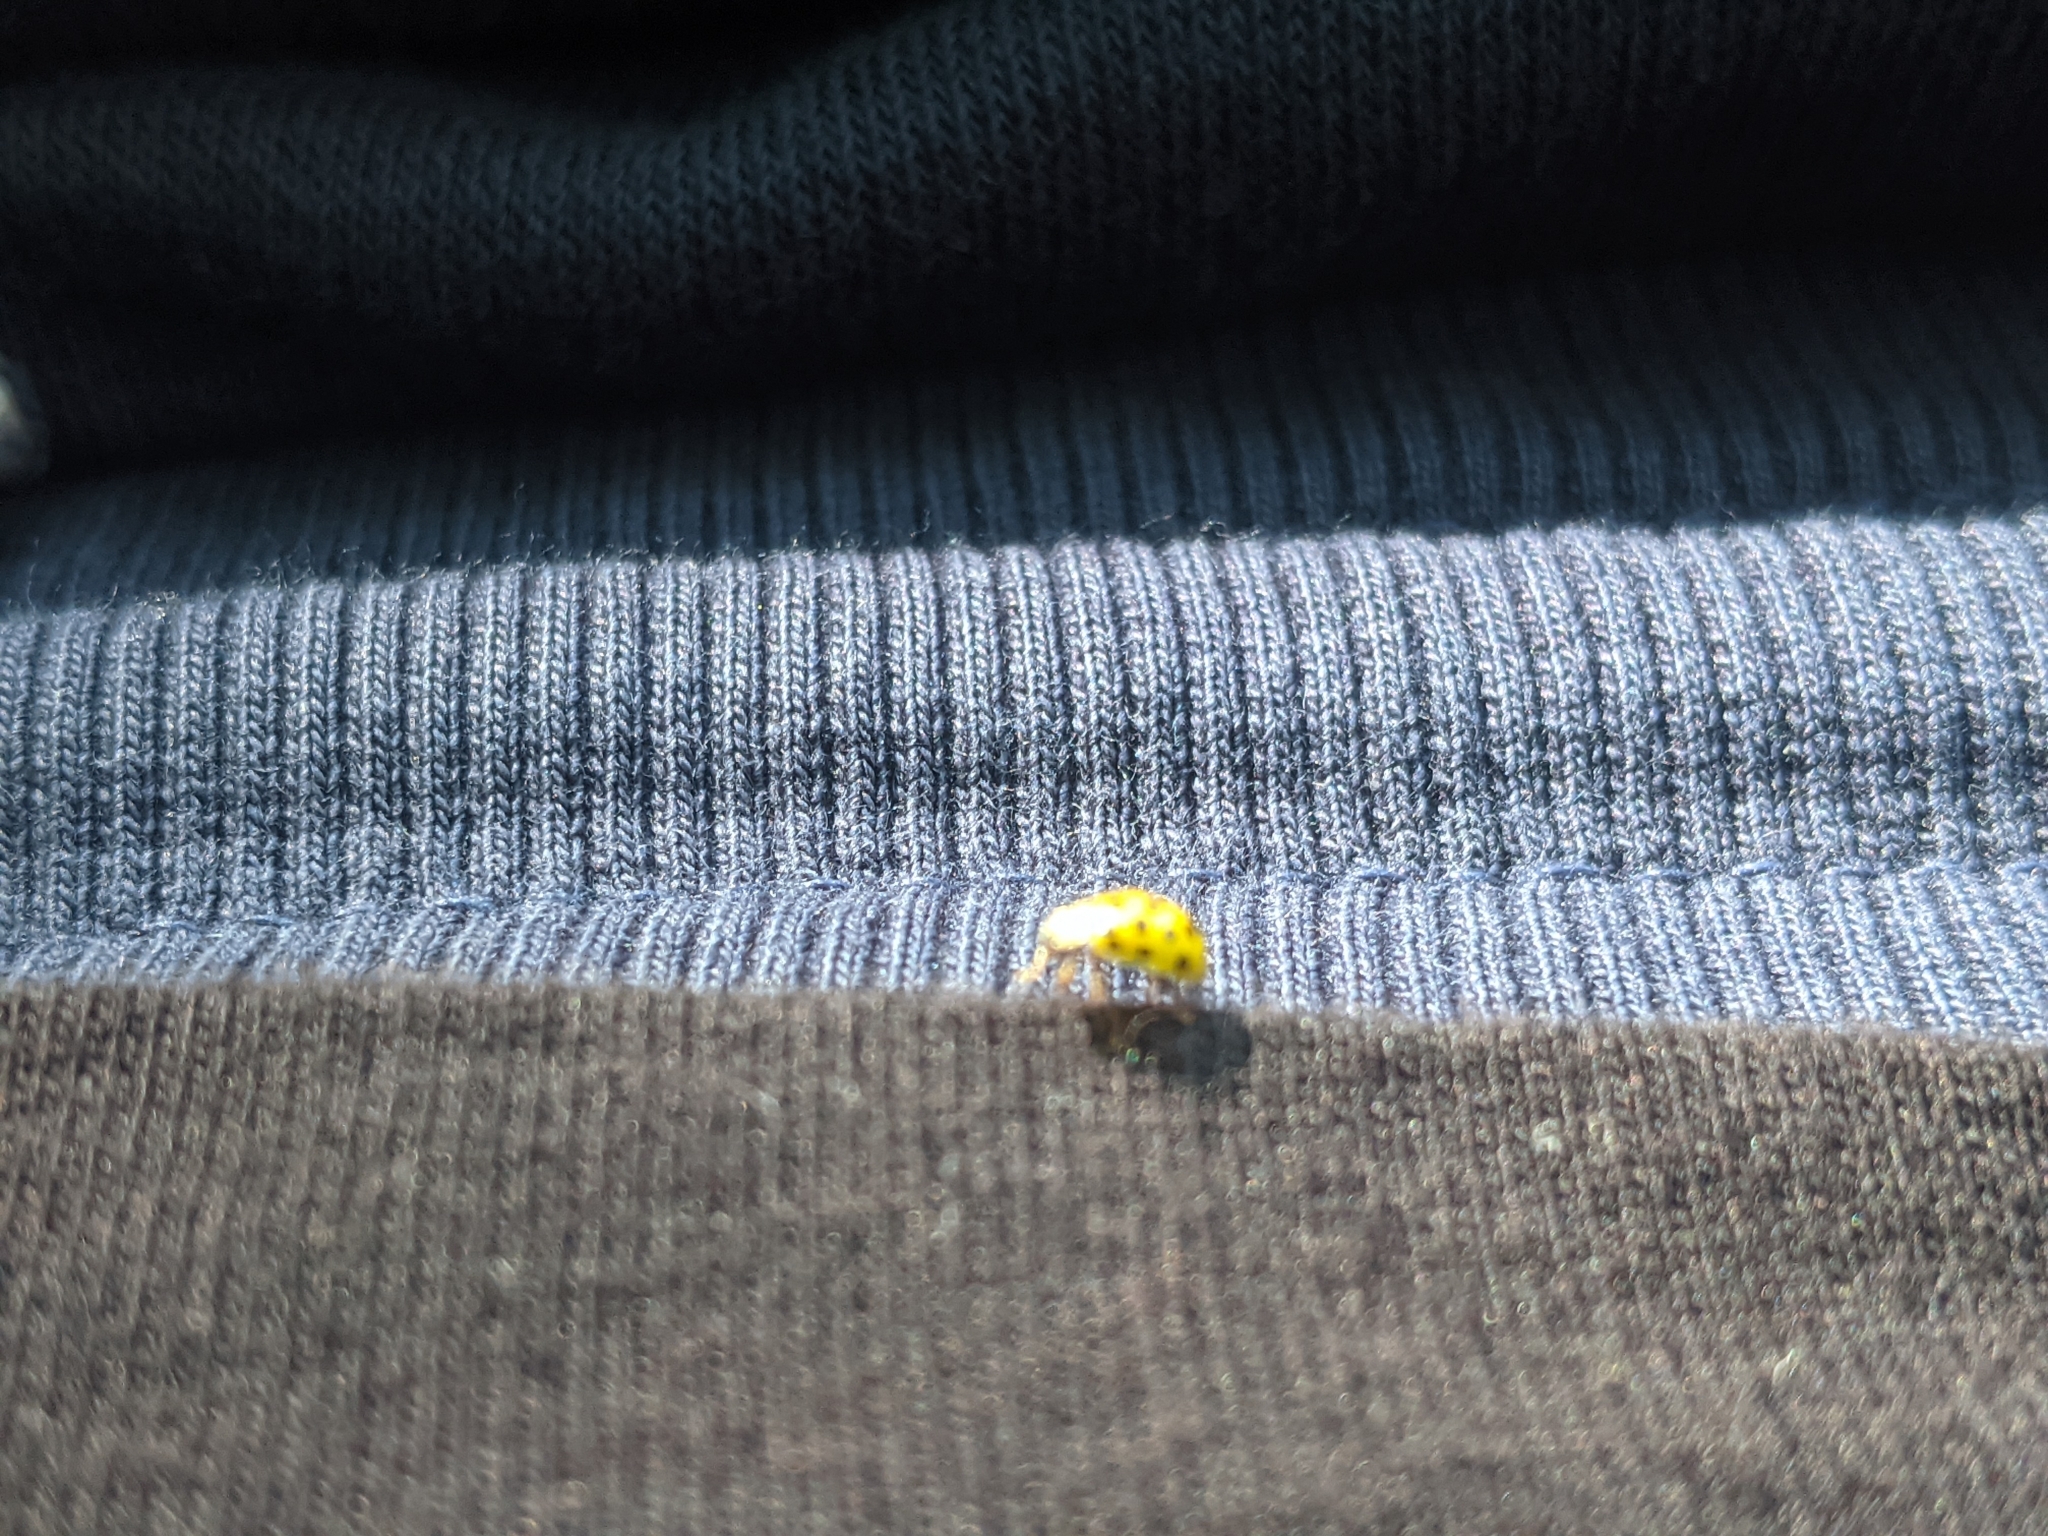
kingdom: Animalia
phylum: Arthropoda
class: Insecta
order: Coleoptera
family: Coccinellidae
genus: Psyllobora
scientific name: Psyllobora vigintiduopunctata
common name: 22-spot ladybird
